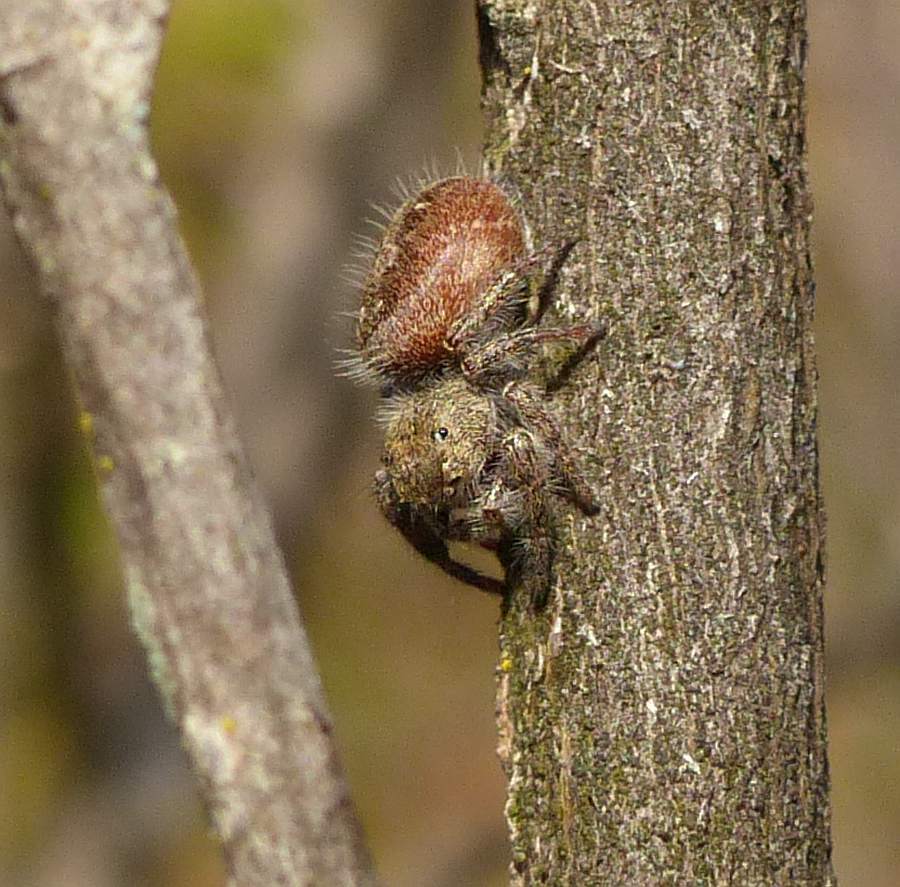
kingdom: Animalia
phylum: Arthropoda
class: Arachnida
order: Araneae
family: Salticidae
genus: Phidippus
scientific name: Phidippus princeps
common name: Grayish jumping spider
